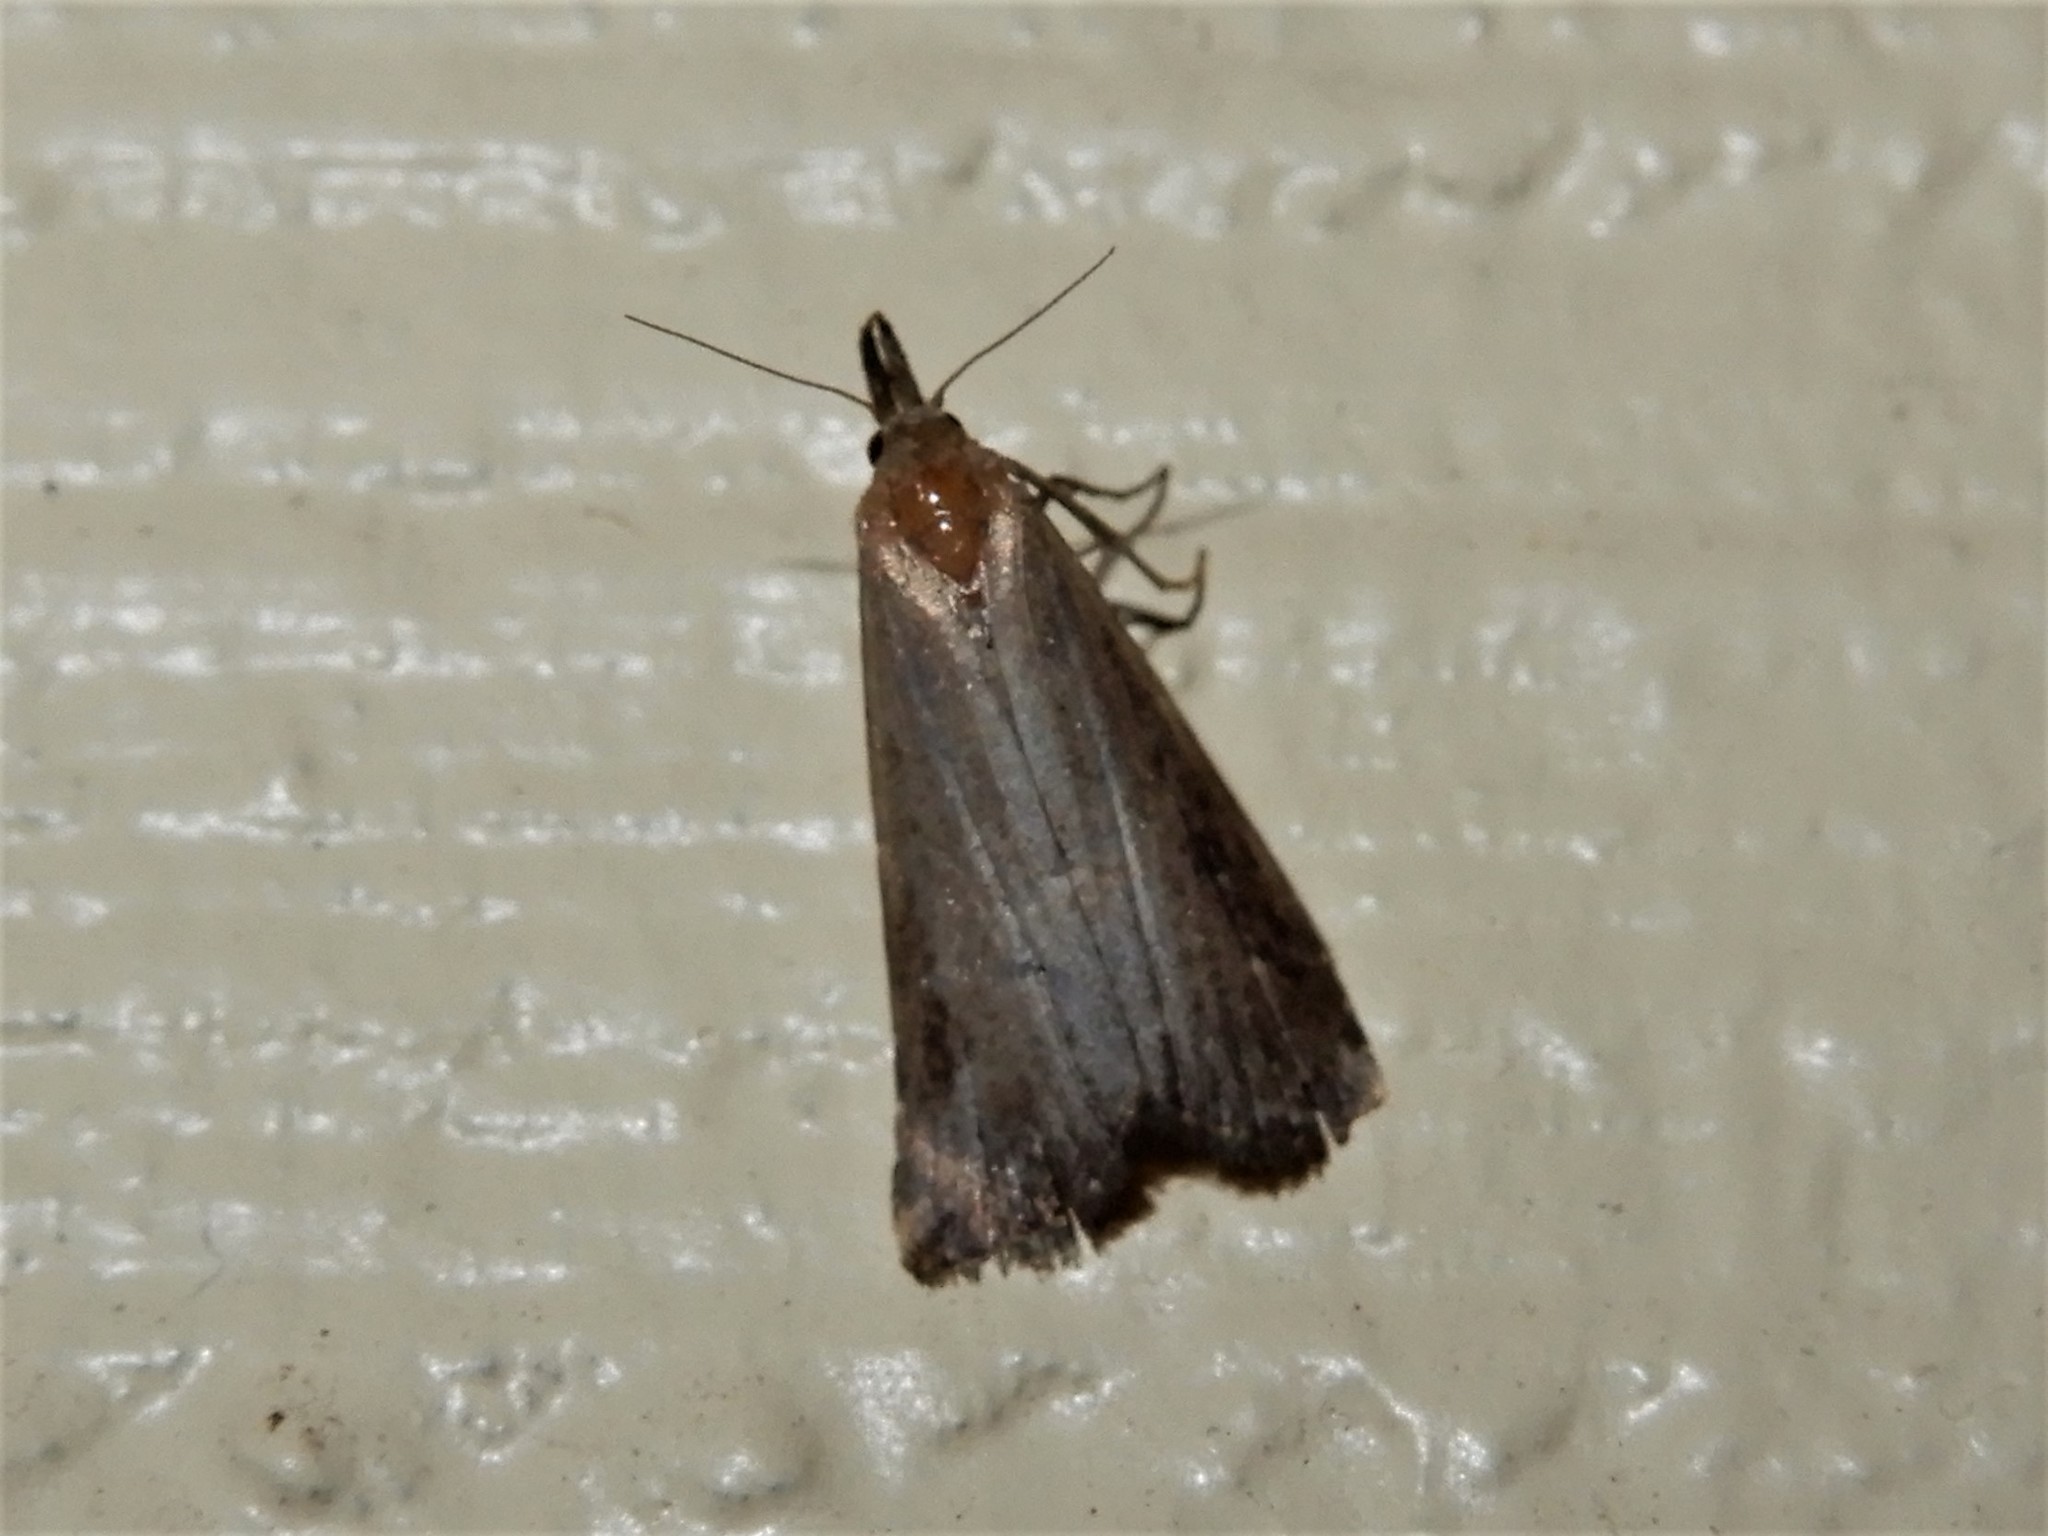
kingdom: Animalia
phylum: Arthropoda
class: Insecta
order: Lepidoptera
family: Erebidae
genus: Schrankia
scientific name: Schrankia costaestrigalis
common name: Pinion-streaked snout
